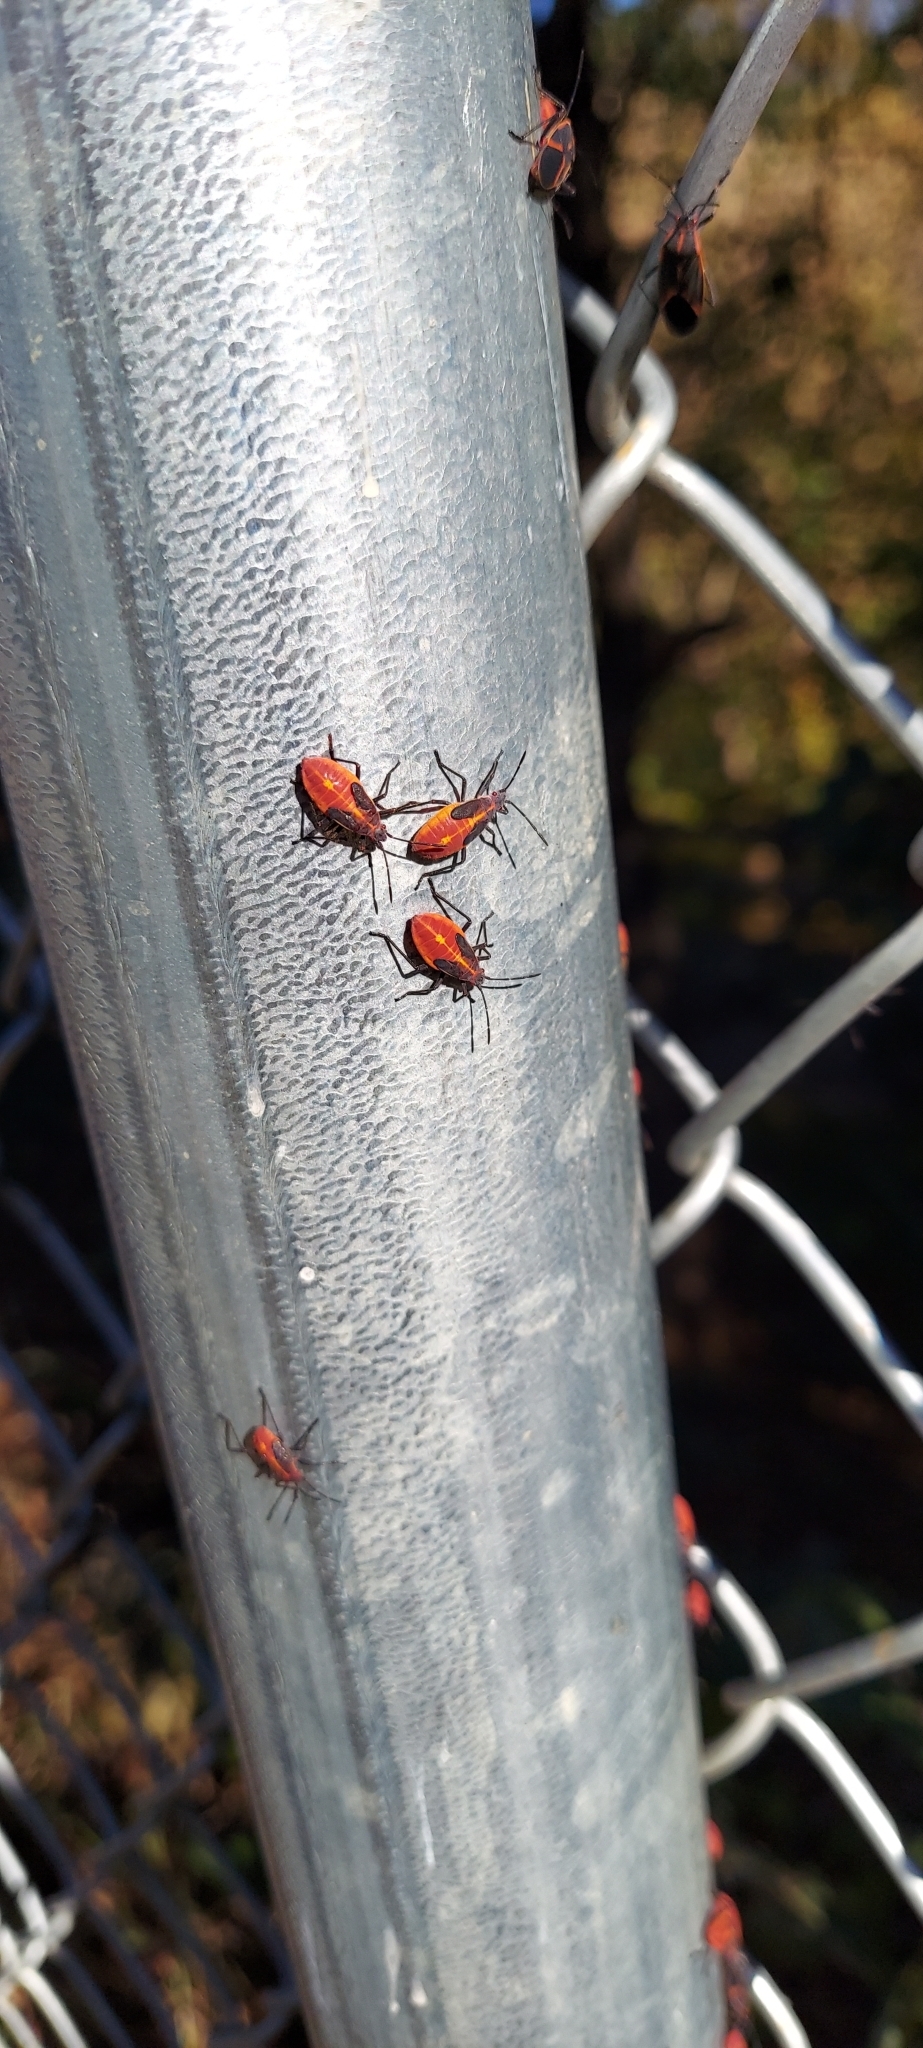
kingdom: Animalia
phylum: Arthropoda
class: Insecta
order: Hemiptera
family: Rhopalidae
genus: Boisea
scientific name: Boisea trivittata
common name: Boxelder bug
